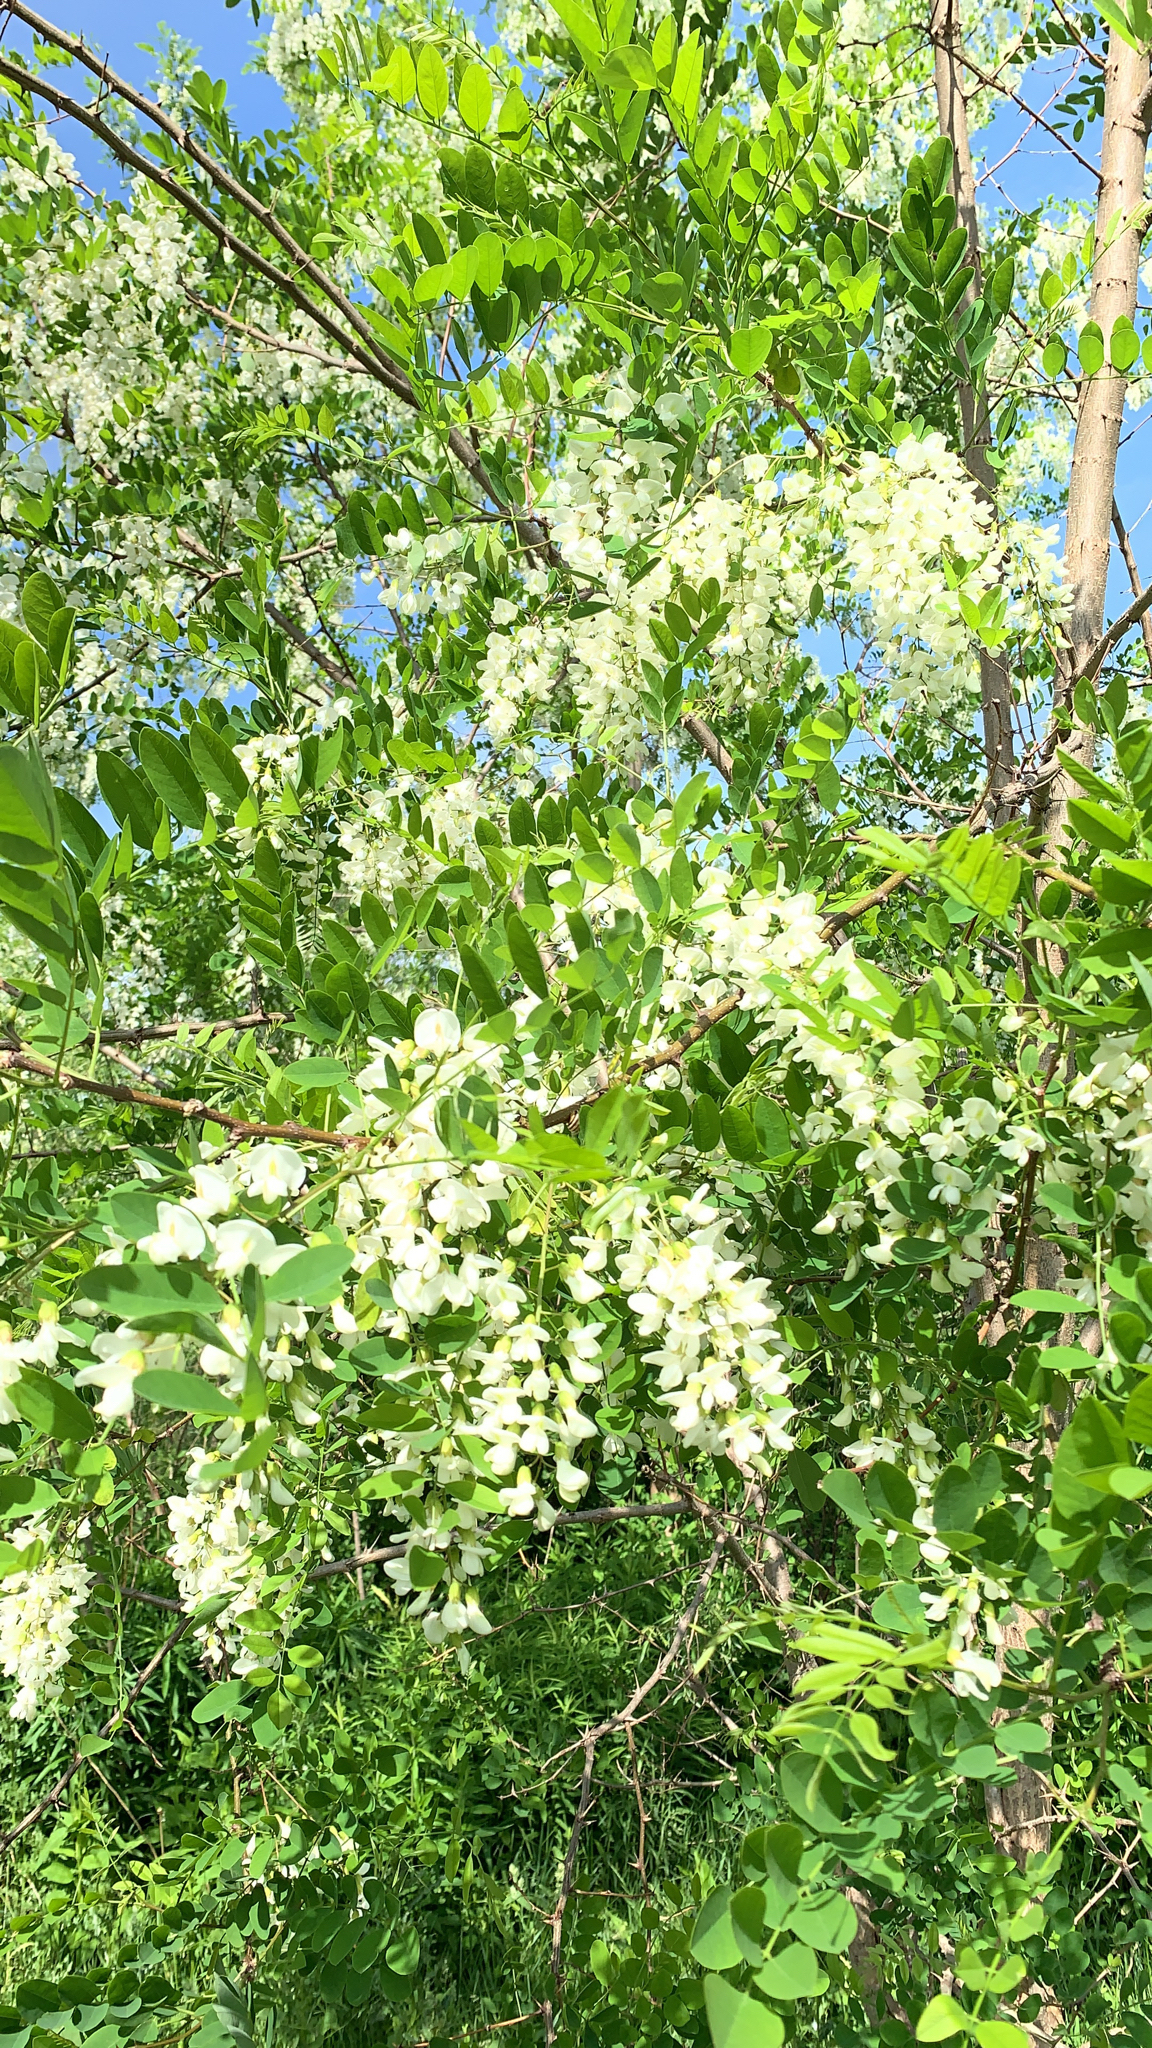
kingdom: Plantae
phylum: Tracheophyta
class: Magnoliopsida
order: Fabales
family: Fabaceae
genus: Robinia
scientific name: Robinia pseudoacacia
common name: Black locust
